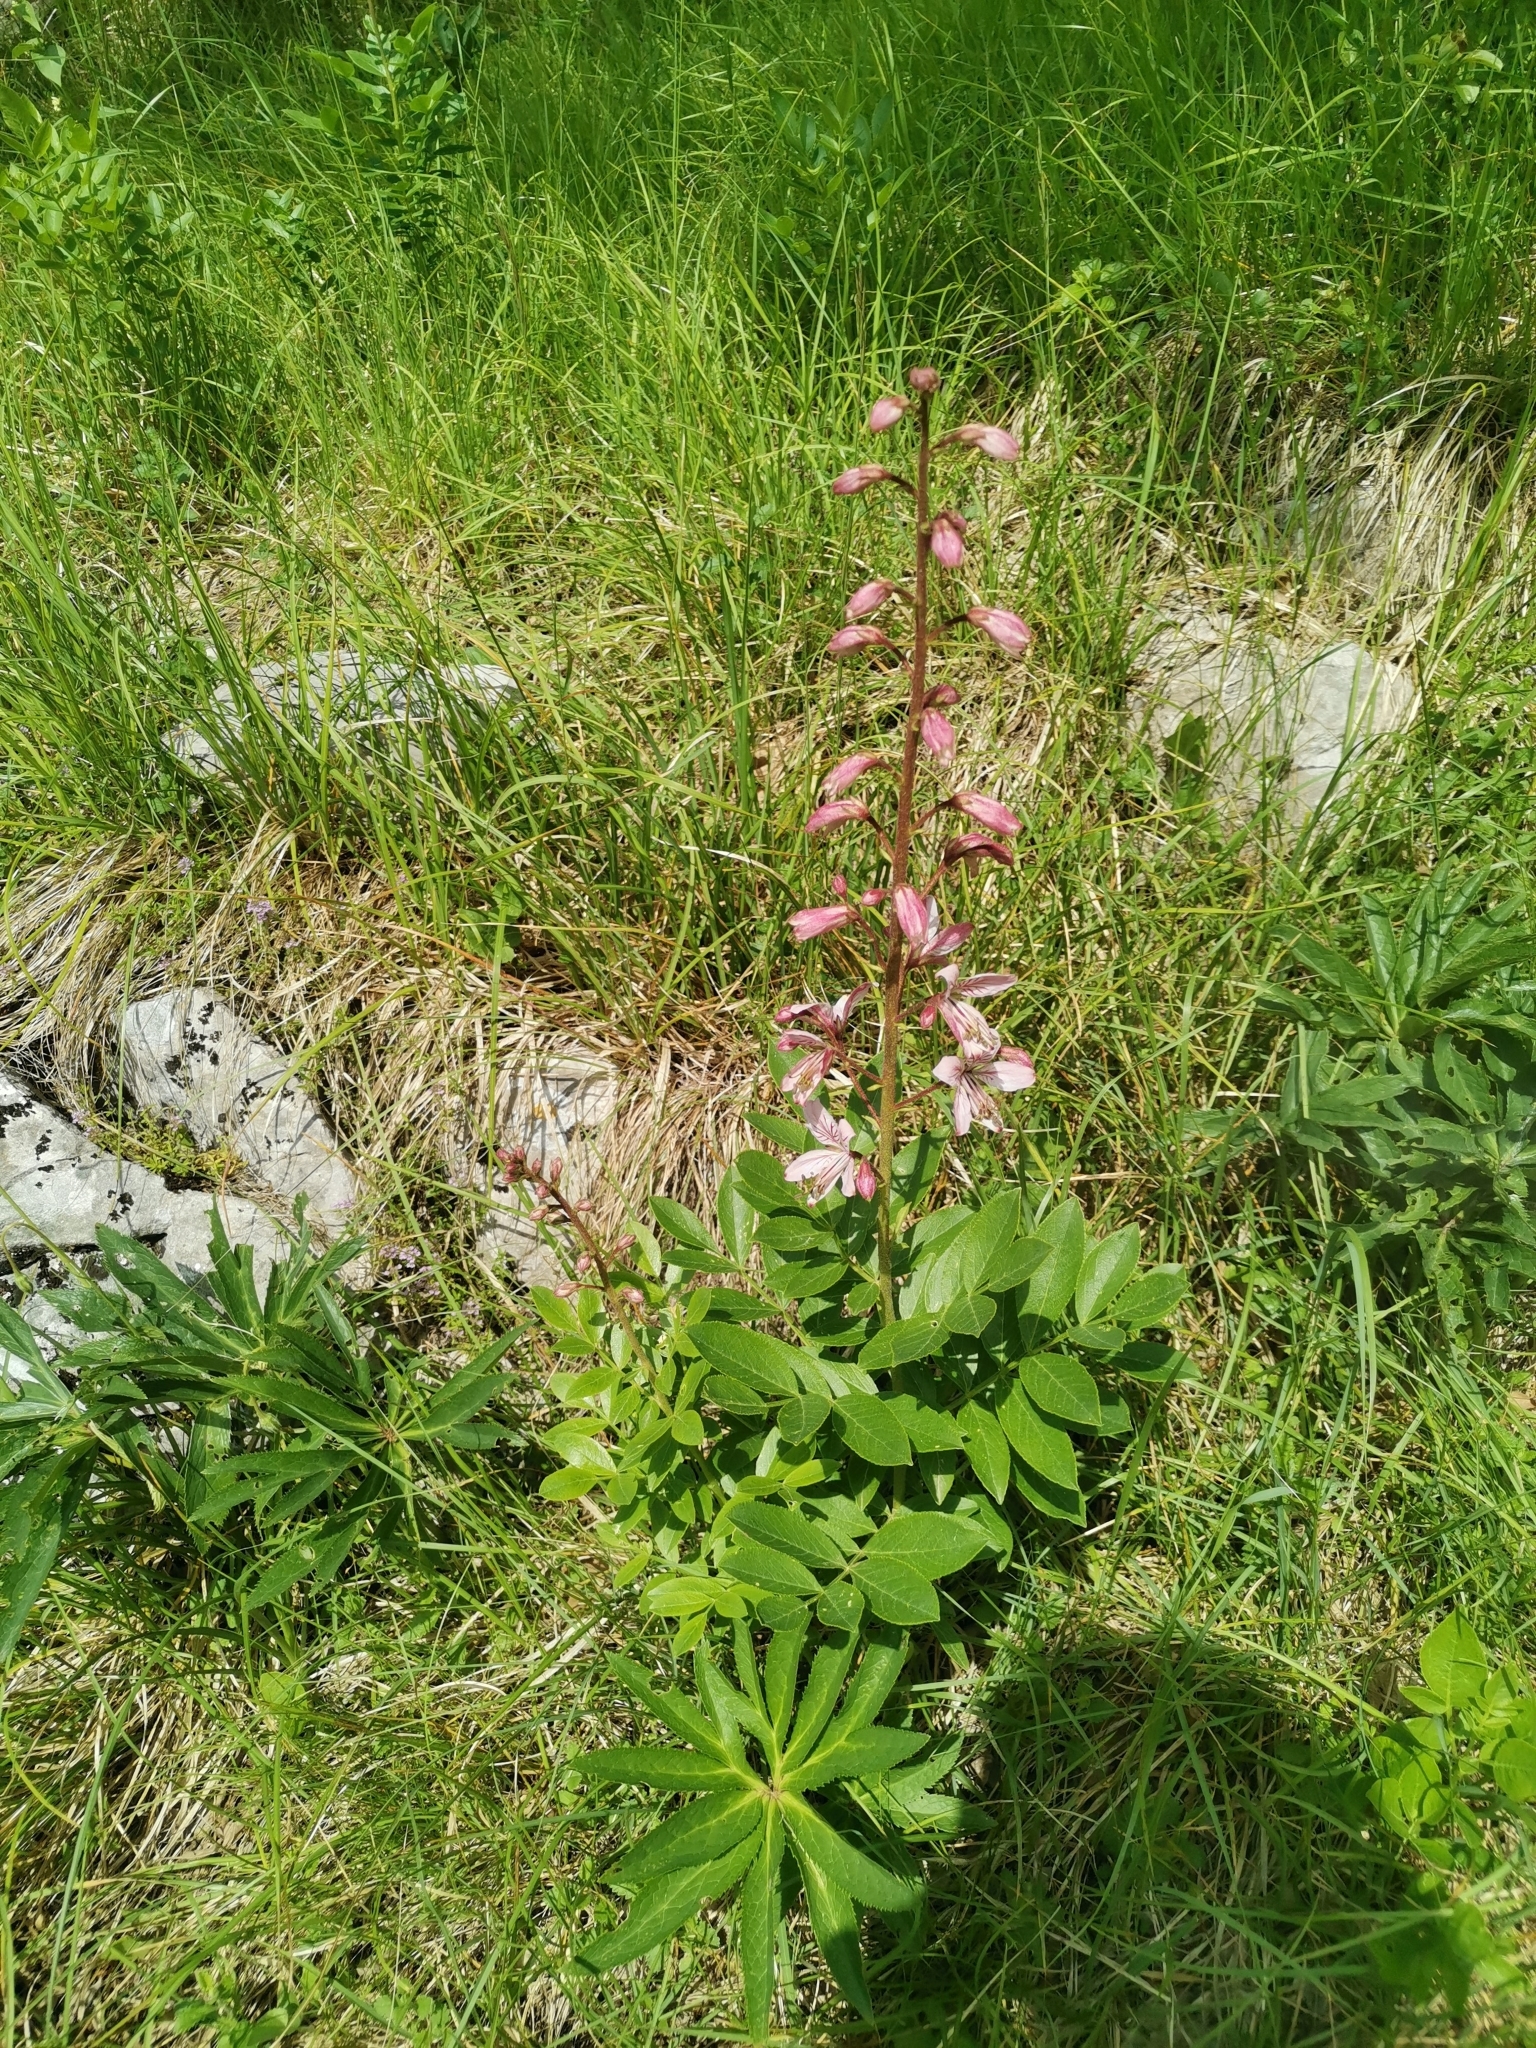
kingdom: Plantae
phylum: Tracheophyta
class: Magnoliopsida
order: Sapindales
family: Rutaceae
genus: Dictamnus
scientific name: Dictamnus albus
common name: Gasplant
